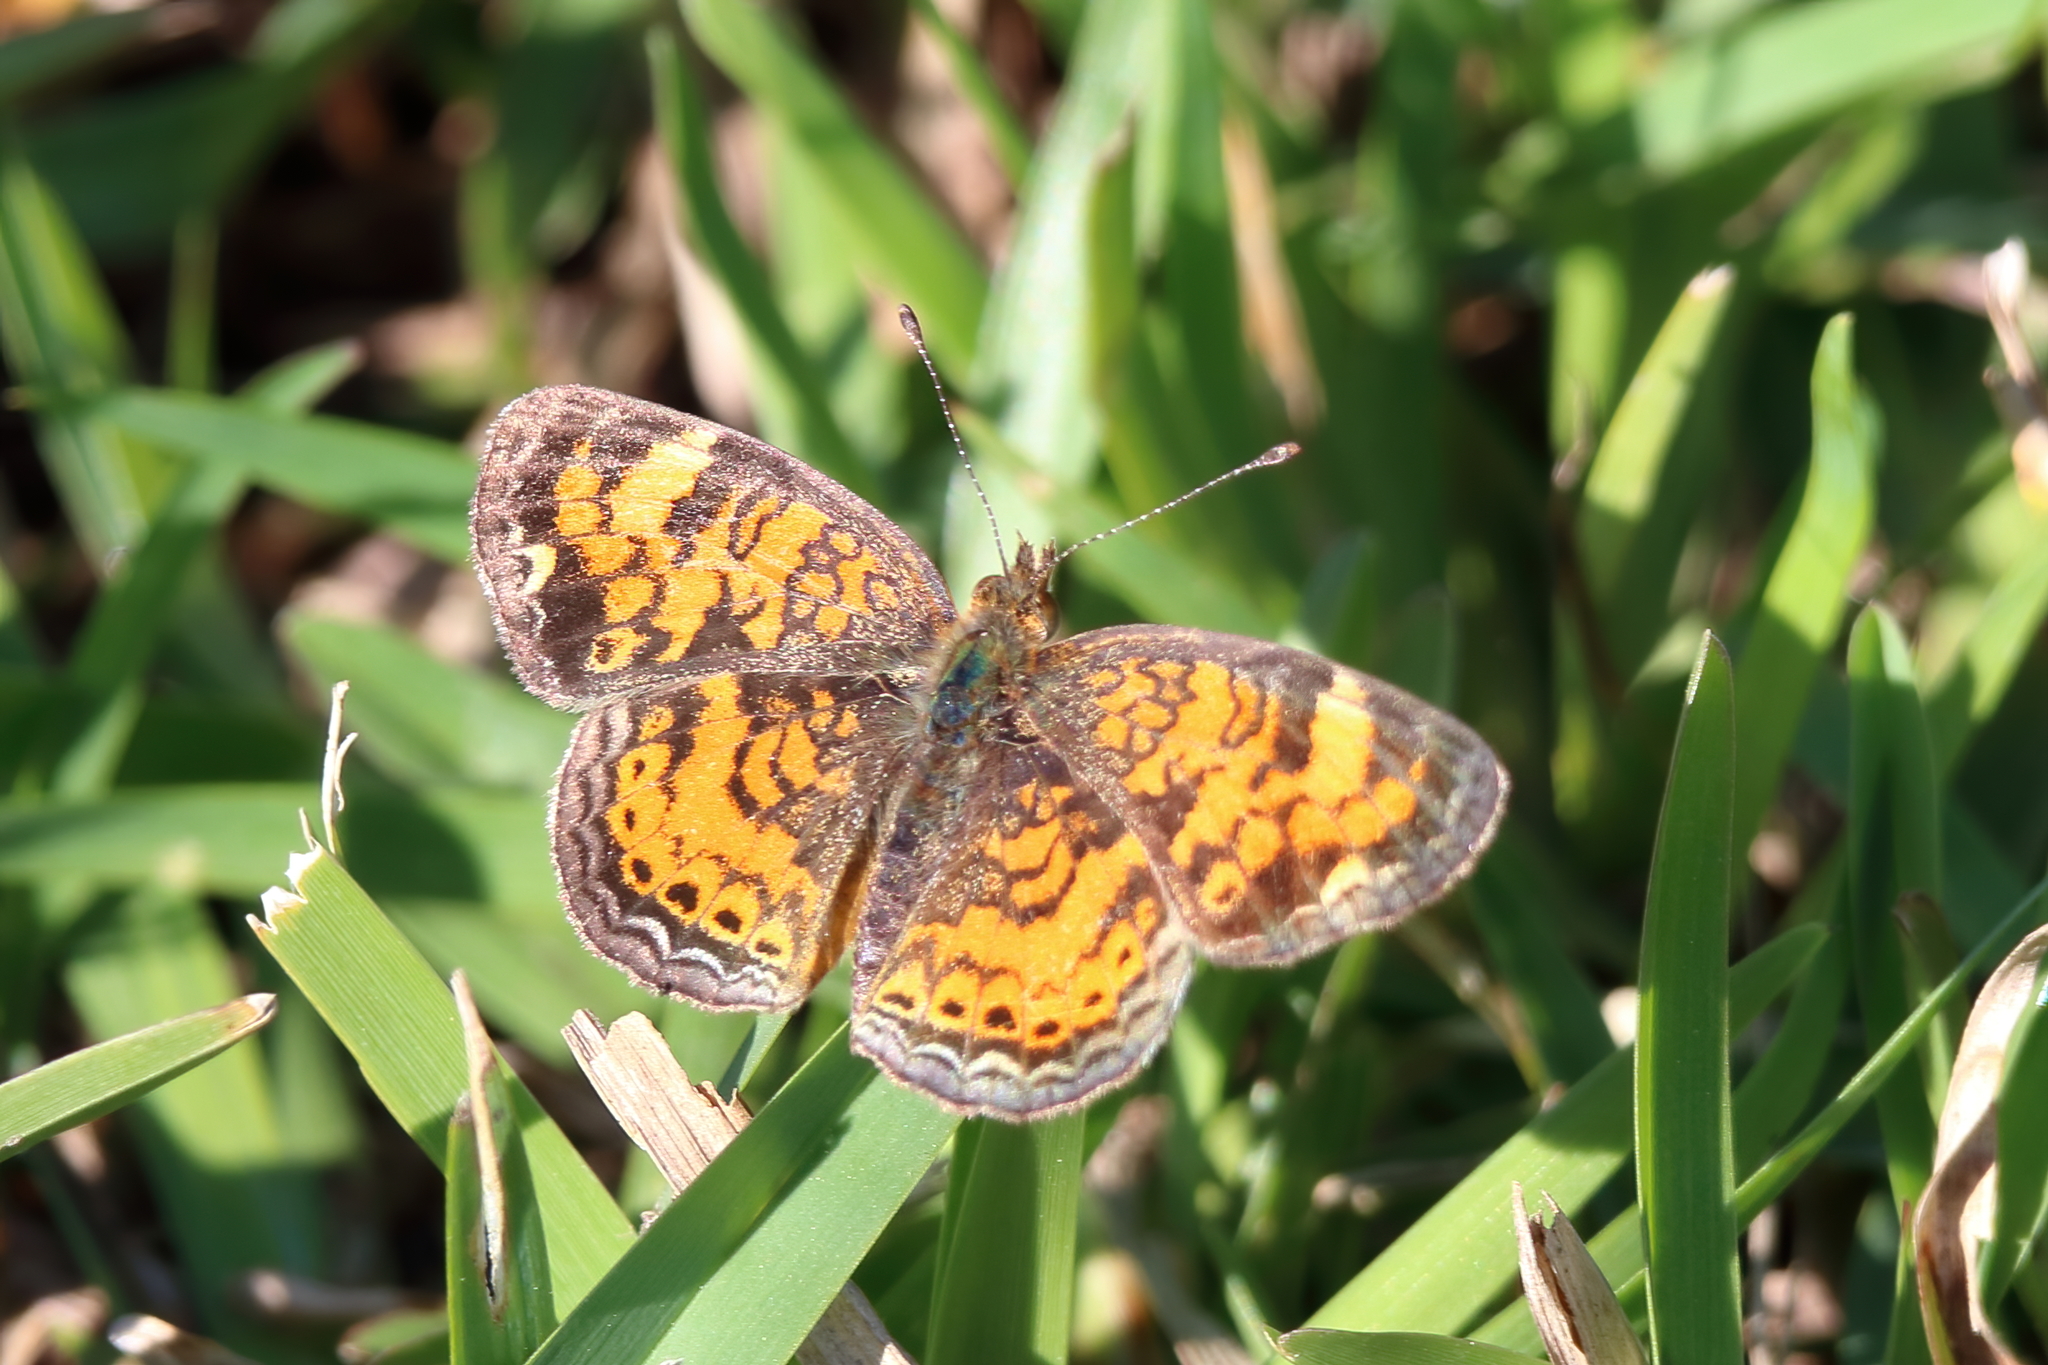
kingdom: Animalia
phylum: Arthropoda
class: Insecta
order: Lepidoptera
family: Nymphalidae
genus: Phyciodes
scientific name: Phyciodes tharos
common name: Pearl crescent
